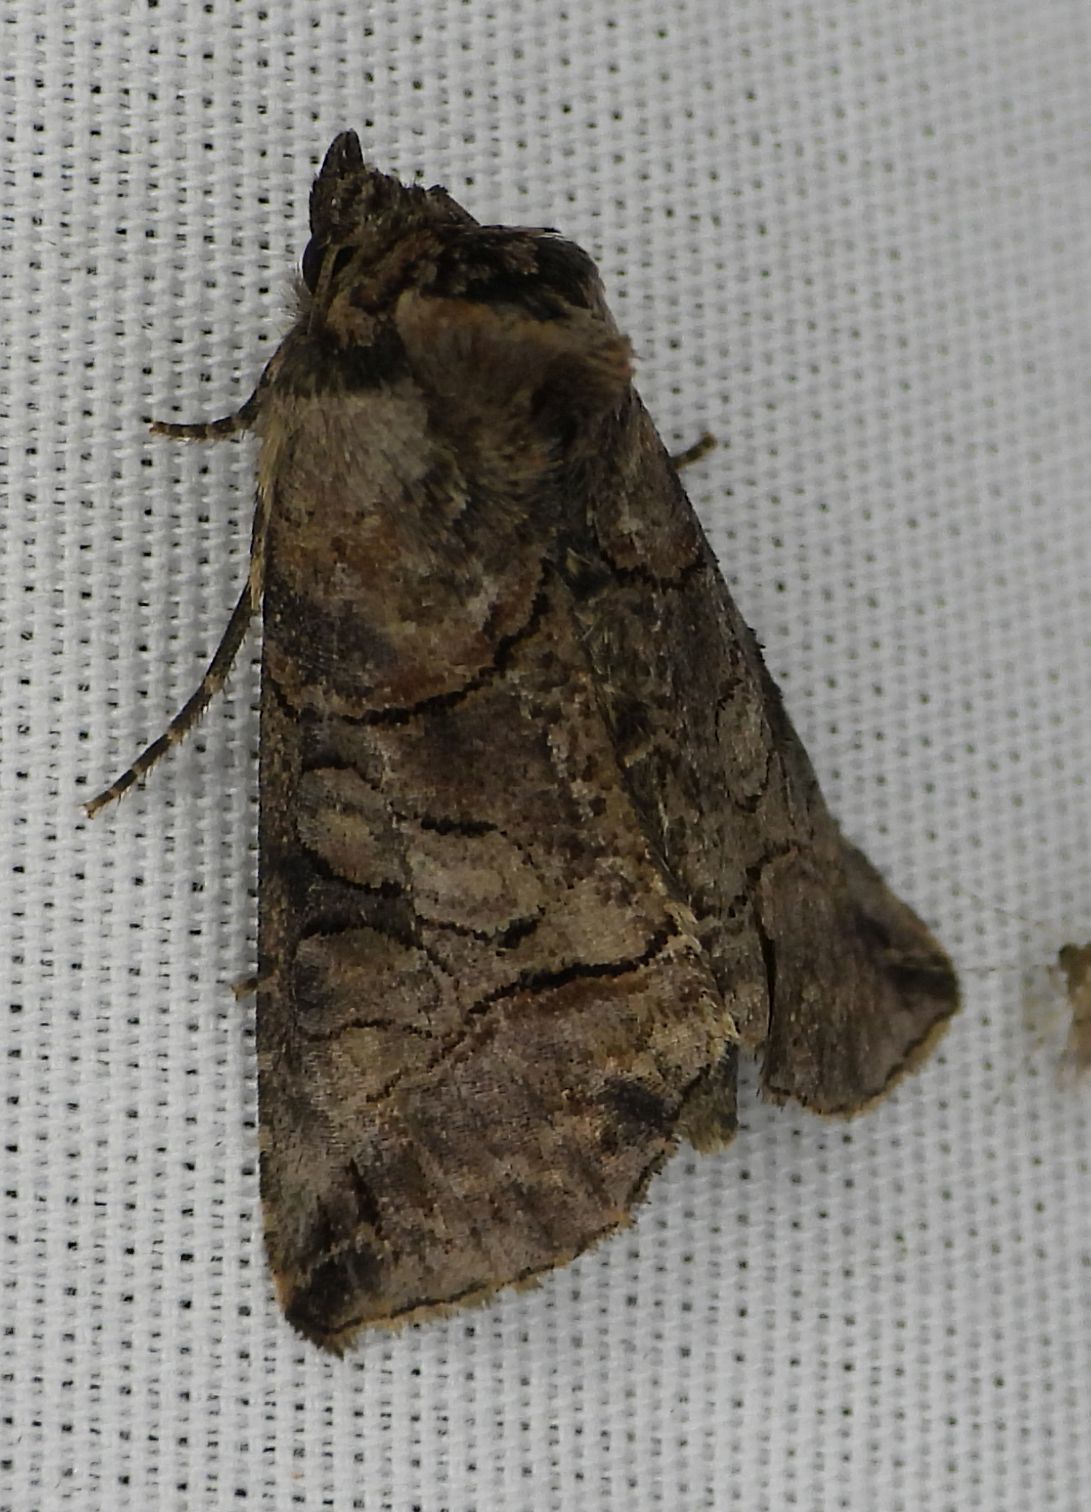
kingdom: Animalia
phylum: Arthropoda
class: Insecta
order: Lepidoptera
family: Noctuidae
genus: Abrostola
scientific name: Abrostola urentis
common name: Spectacled nettle moth
